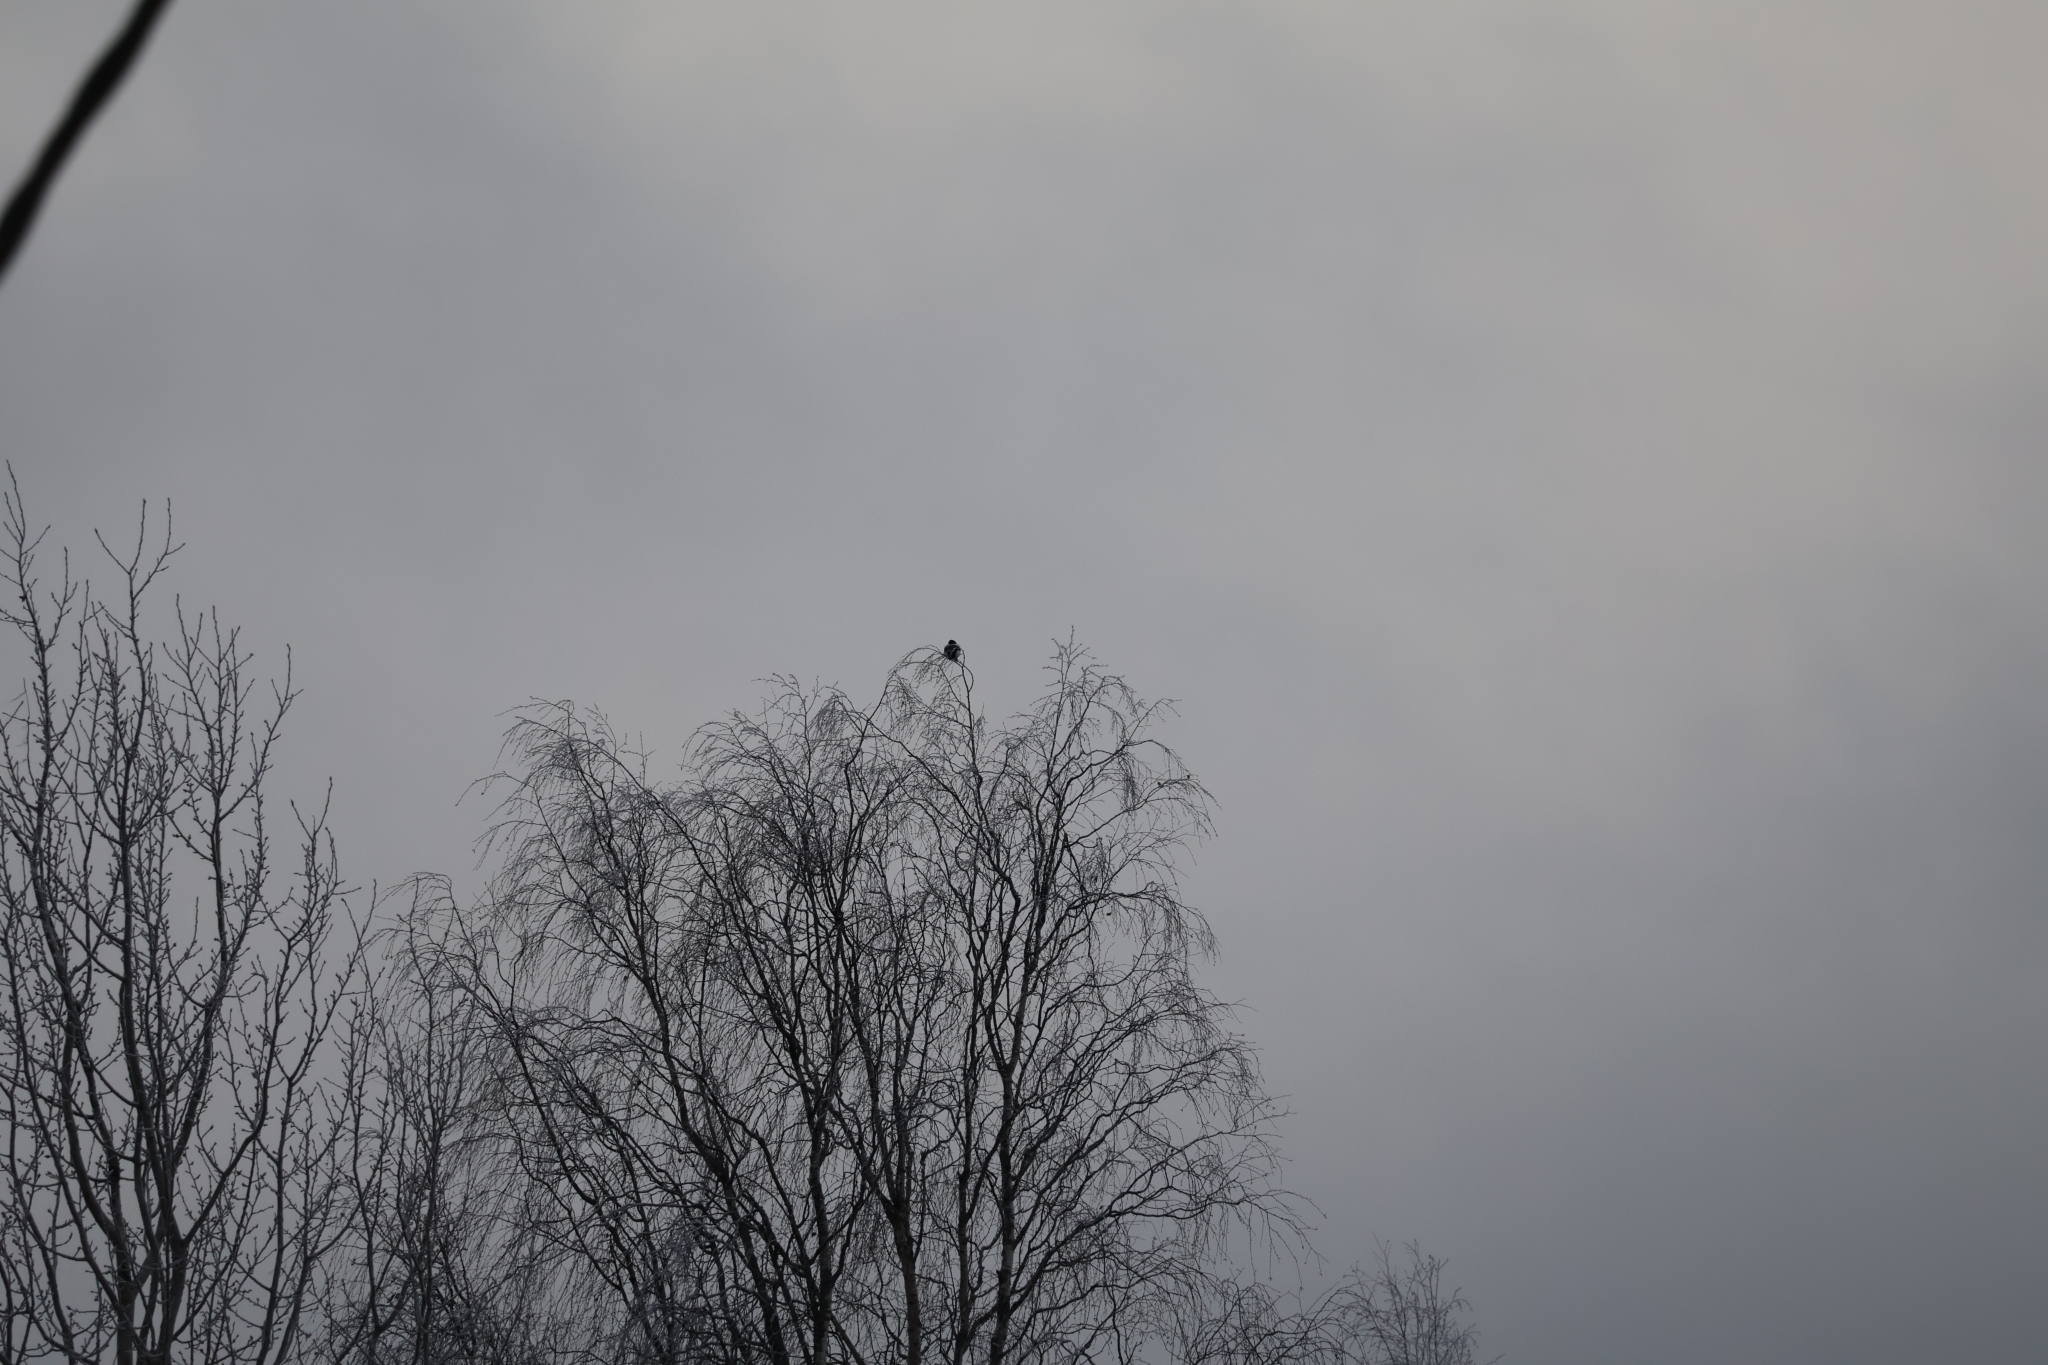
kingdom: Animalia
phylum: Chordata
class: Aves
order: Passeriformes
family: Corvidae
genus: Pica
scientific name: Pica pica
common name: Eurasian magpie
